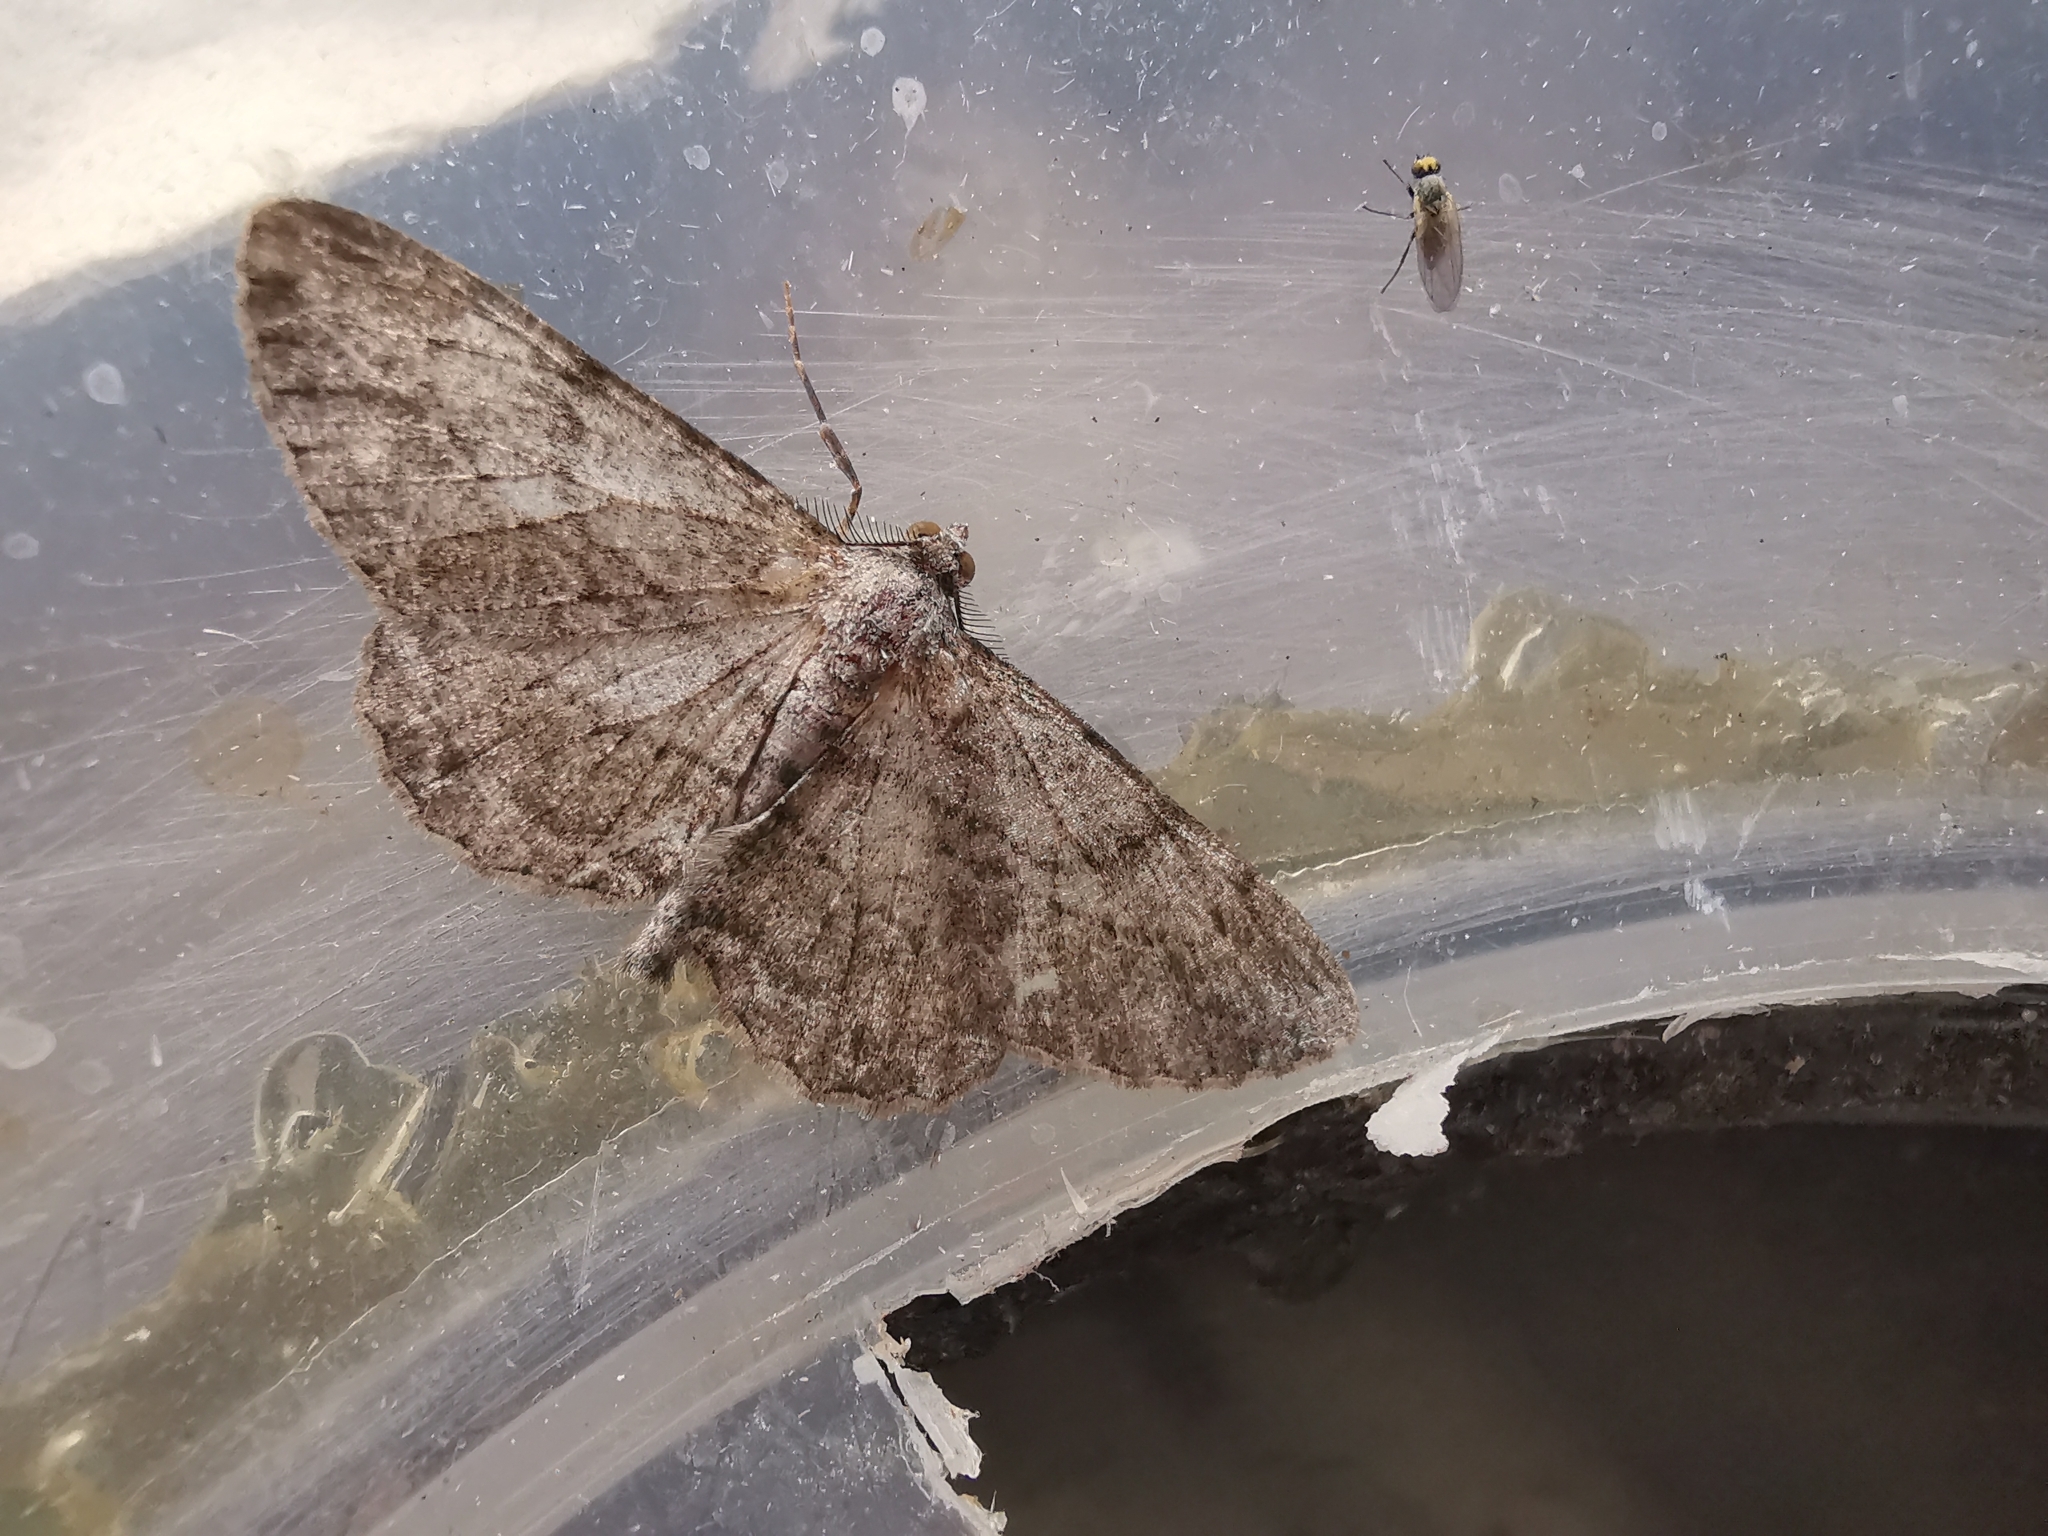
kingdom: Animalia
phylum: Arthropoda
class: Insecta
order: Lepidoptera
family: Geometridae
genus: Peribatodes
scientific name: Peribatodes rhomboidaria
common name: Willow beauty
